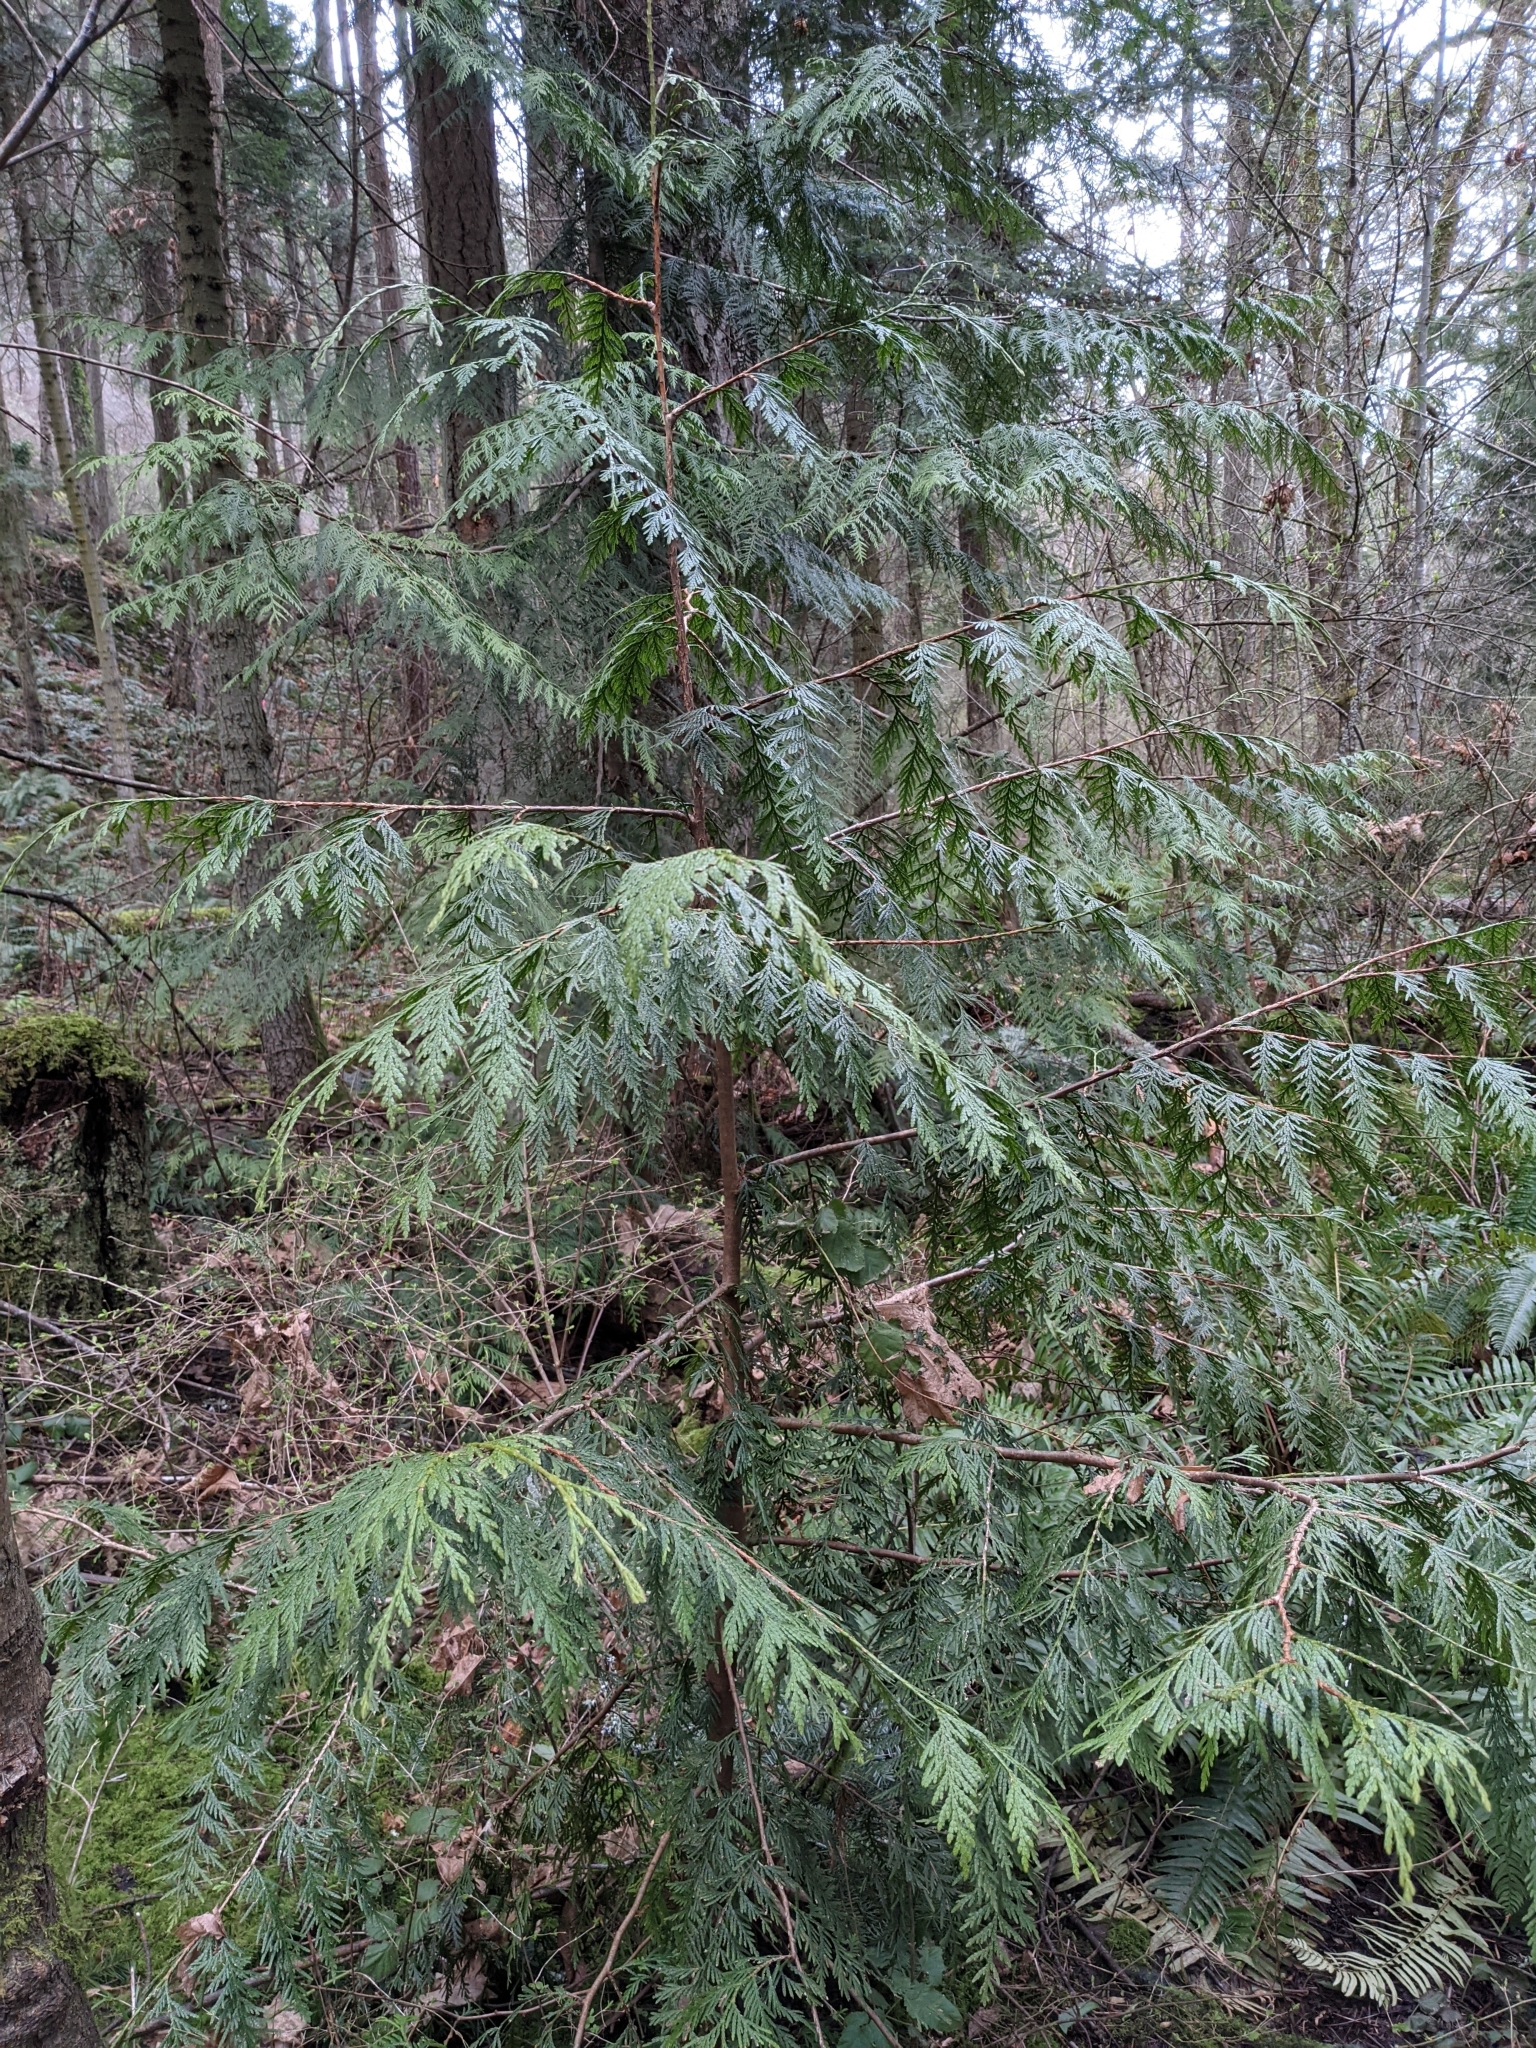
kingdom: Plantae
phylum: Tracheophyta
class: Pinopsida
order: Pinales
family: Cupressaceae
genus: Thuja
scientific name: Thuja plicata
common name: Western red-cedar
